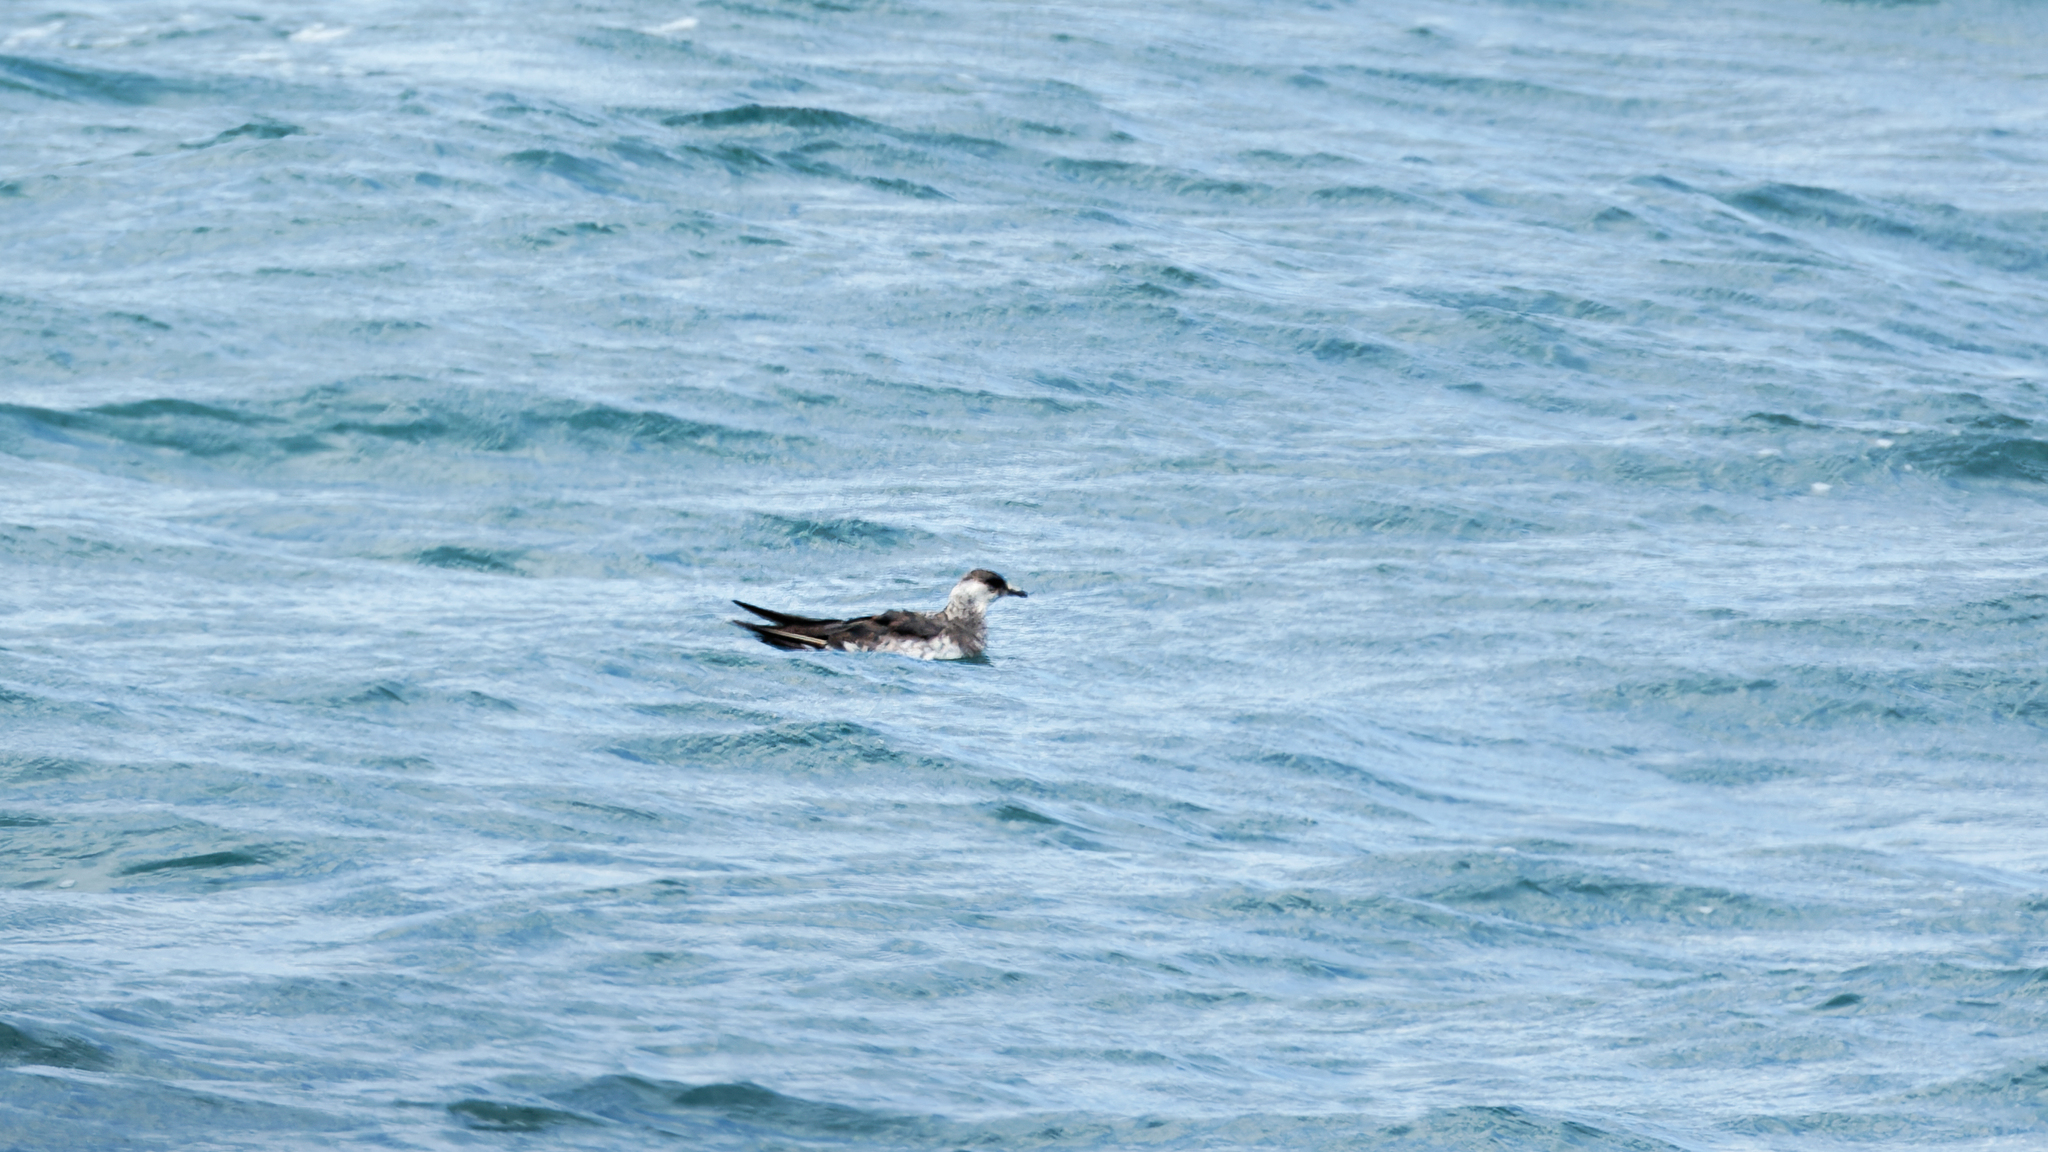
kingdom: Animalia
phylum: Chordata
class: Aves
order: Charadriiformes
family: Stercorariidae
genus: Stercorarius
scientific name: Stercorarius parasiticus
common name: Parasitic jaeger
